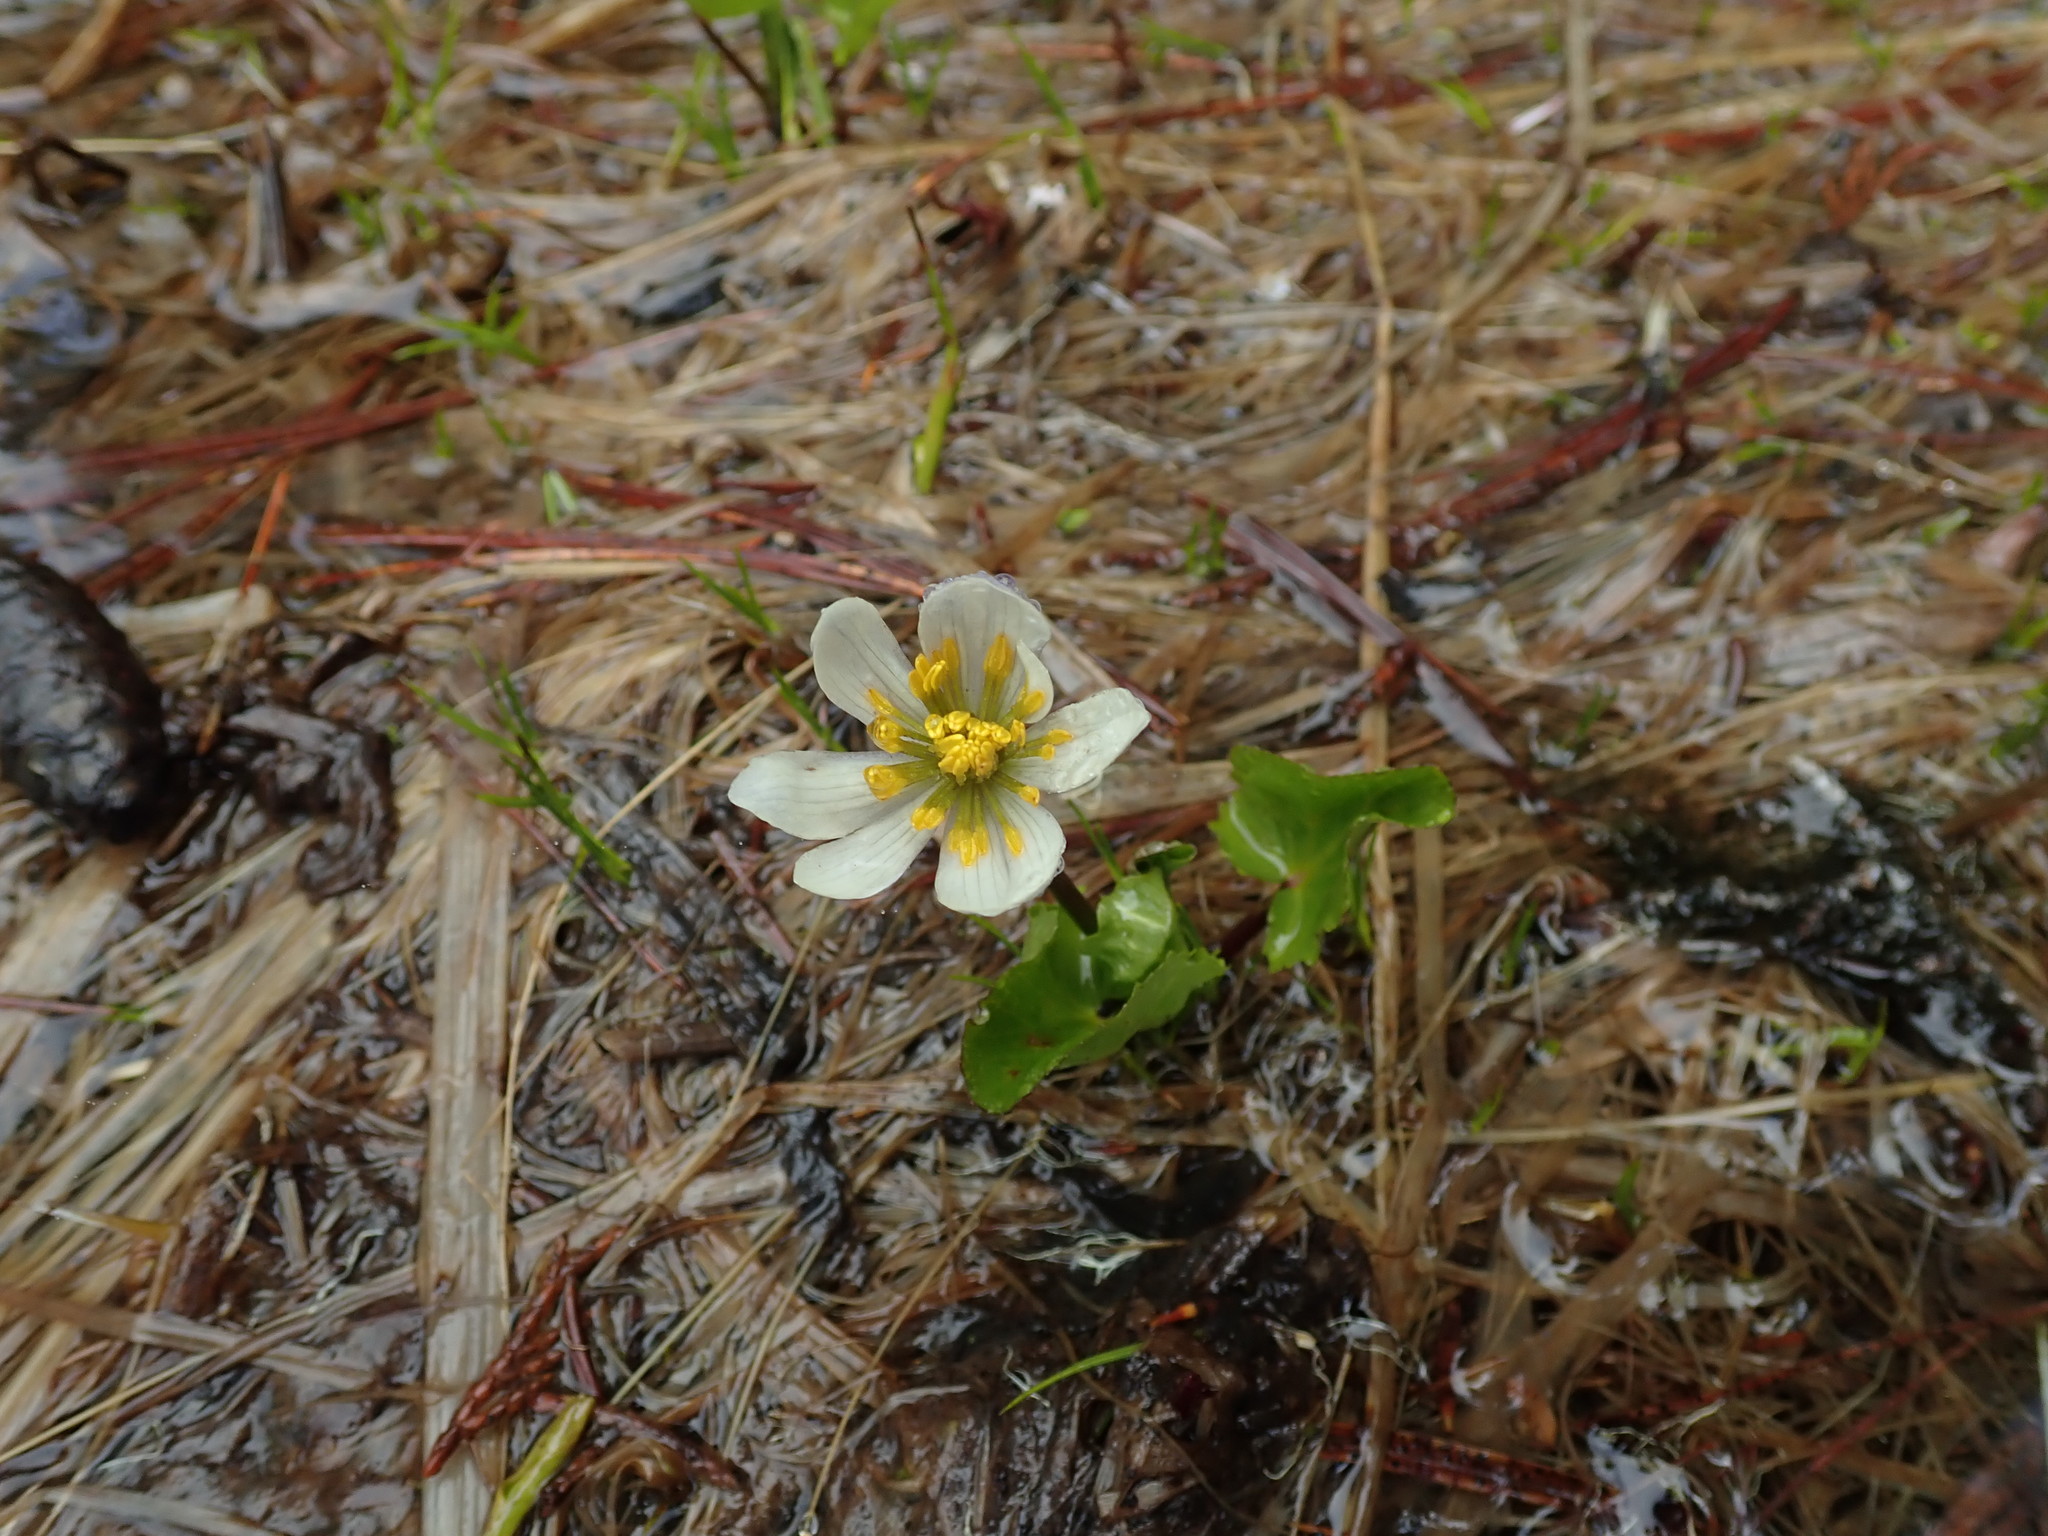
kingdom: Plantae
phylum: Tracheophyta
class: Magnoliopsida
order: Ranunculales
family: Ranunculaceae
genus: Caltha
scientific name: Caltha leptosepala
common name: Elkslip
